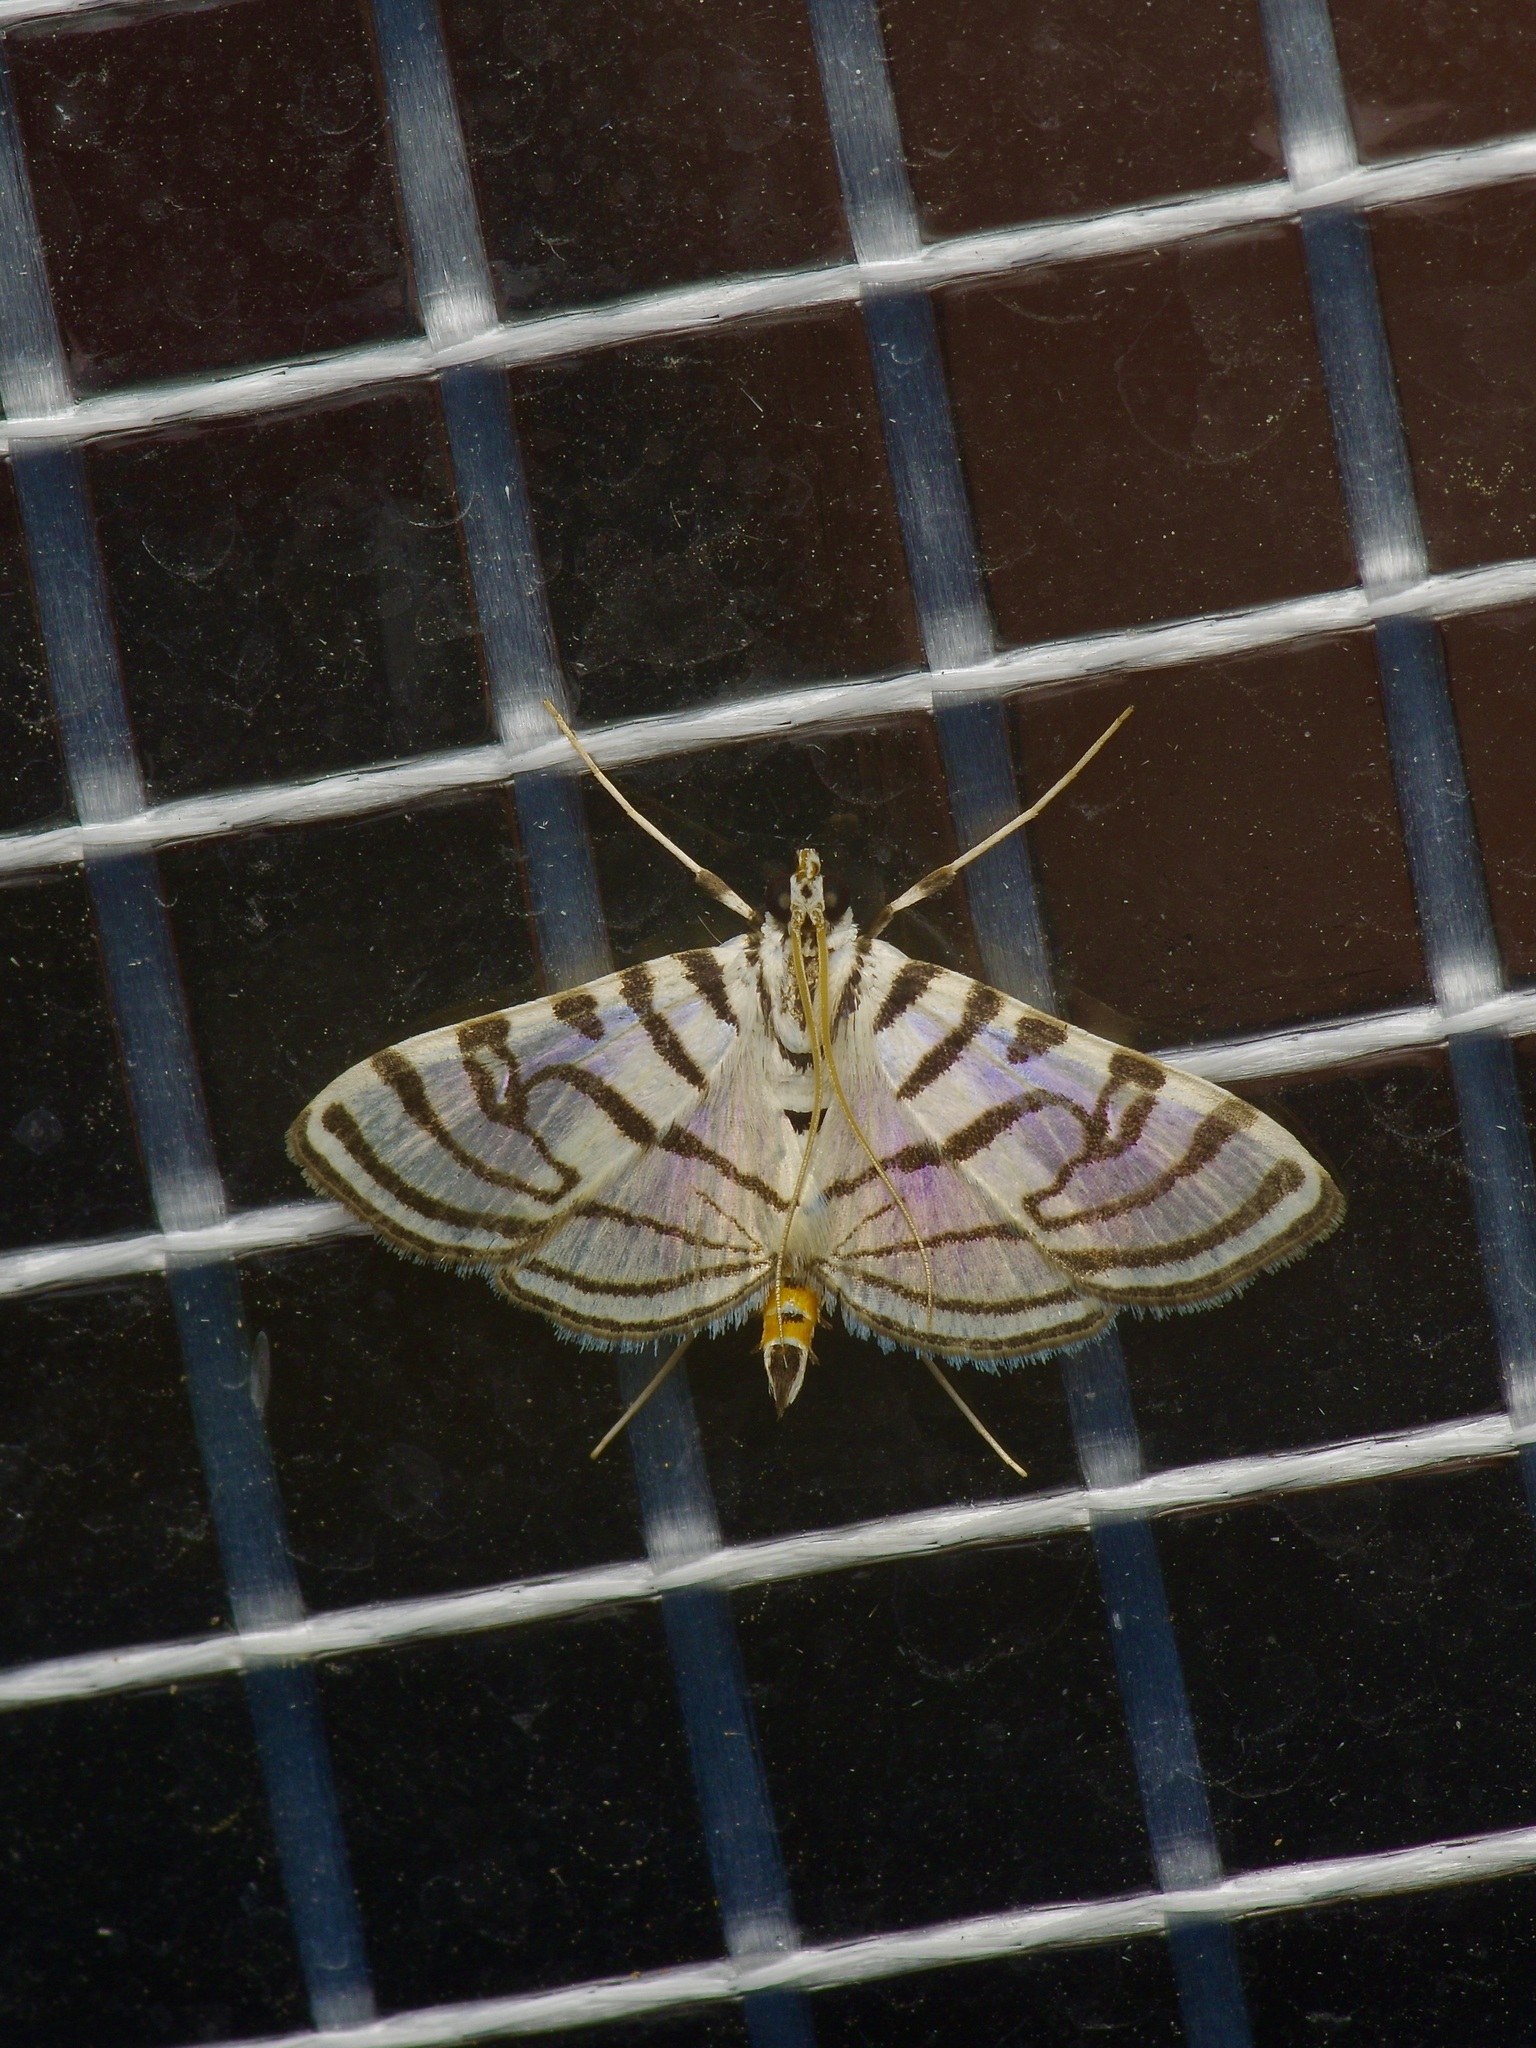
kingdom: Animalia
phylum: Arthropoda
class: Insecta
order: Lepidoptera
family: Crambidae
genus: Conchylodes
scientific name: Conchylodes ovulalis
